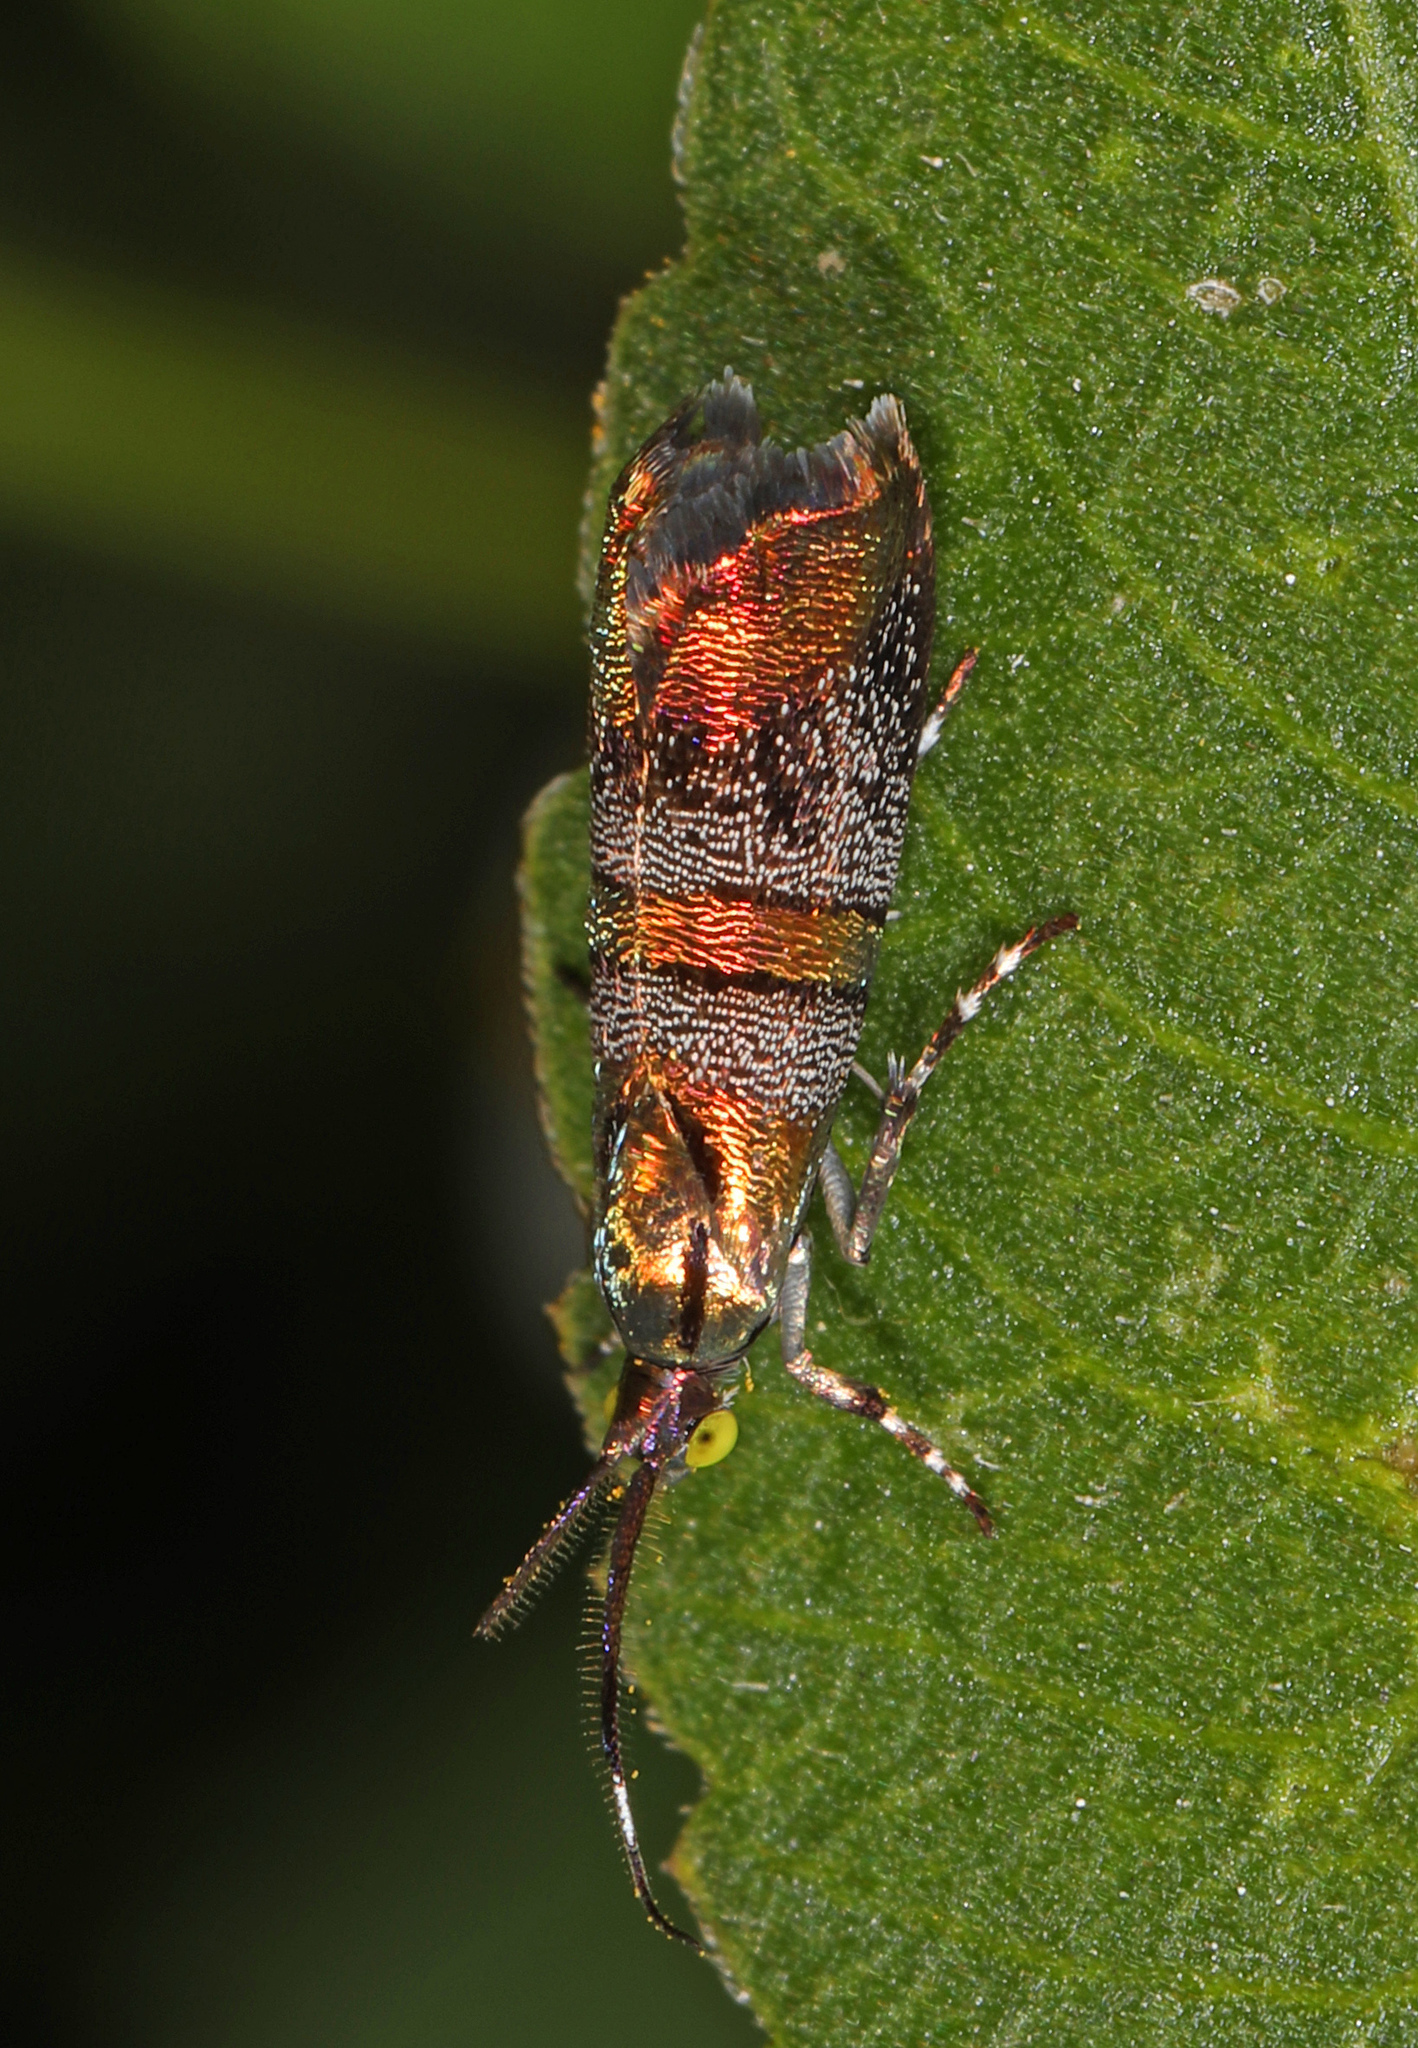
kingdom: Animalia
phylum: Arthropoda
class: Insecta
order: Lepidoptera
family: Choreutidae
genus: Tortyra
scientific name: Tortyra slossonia
